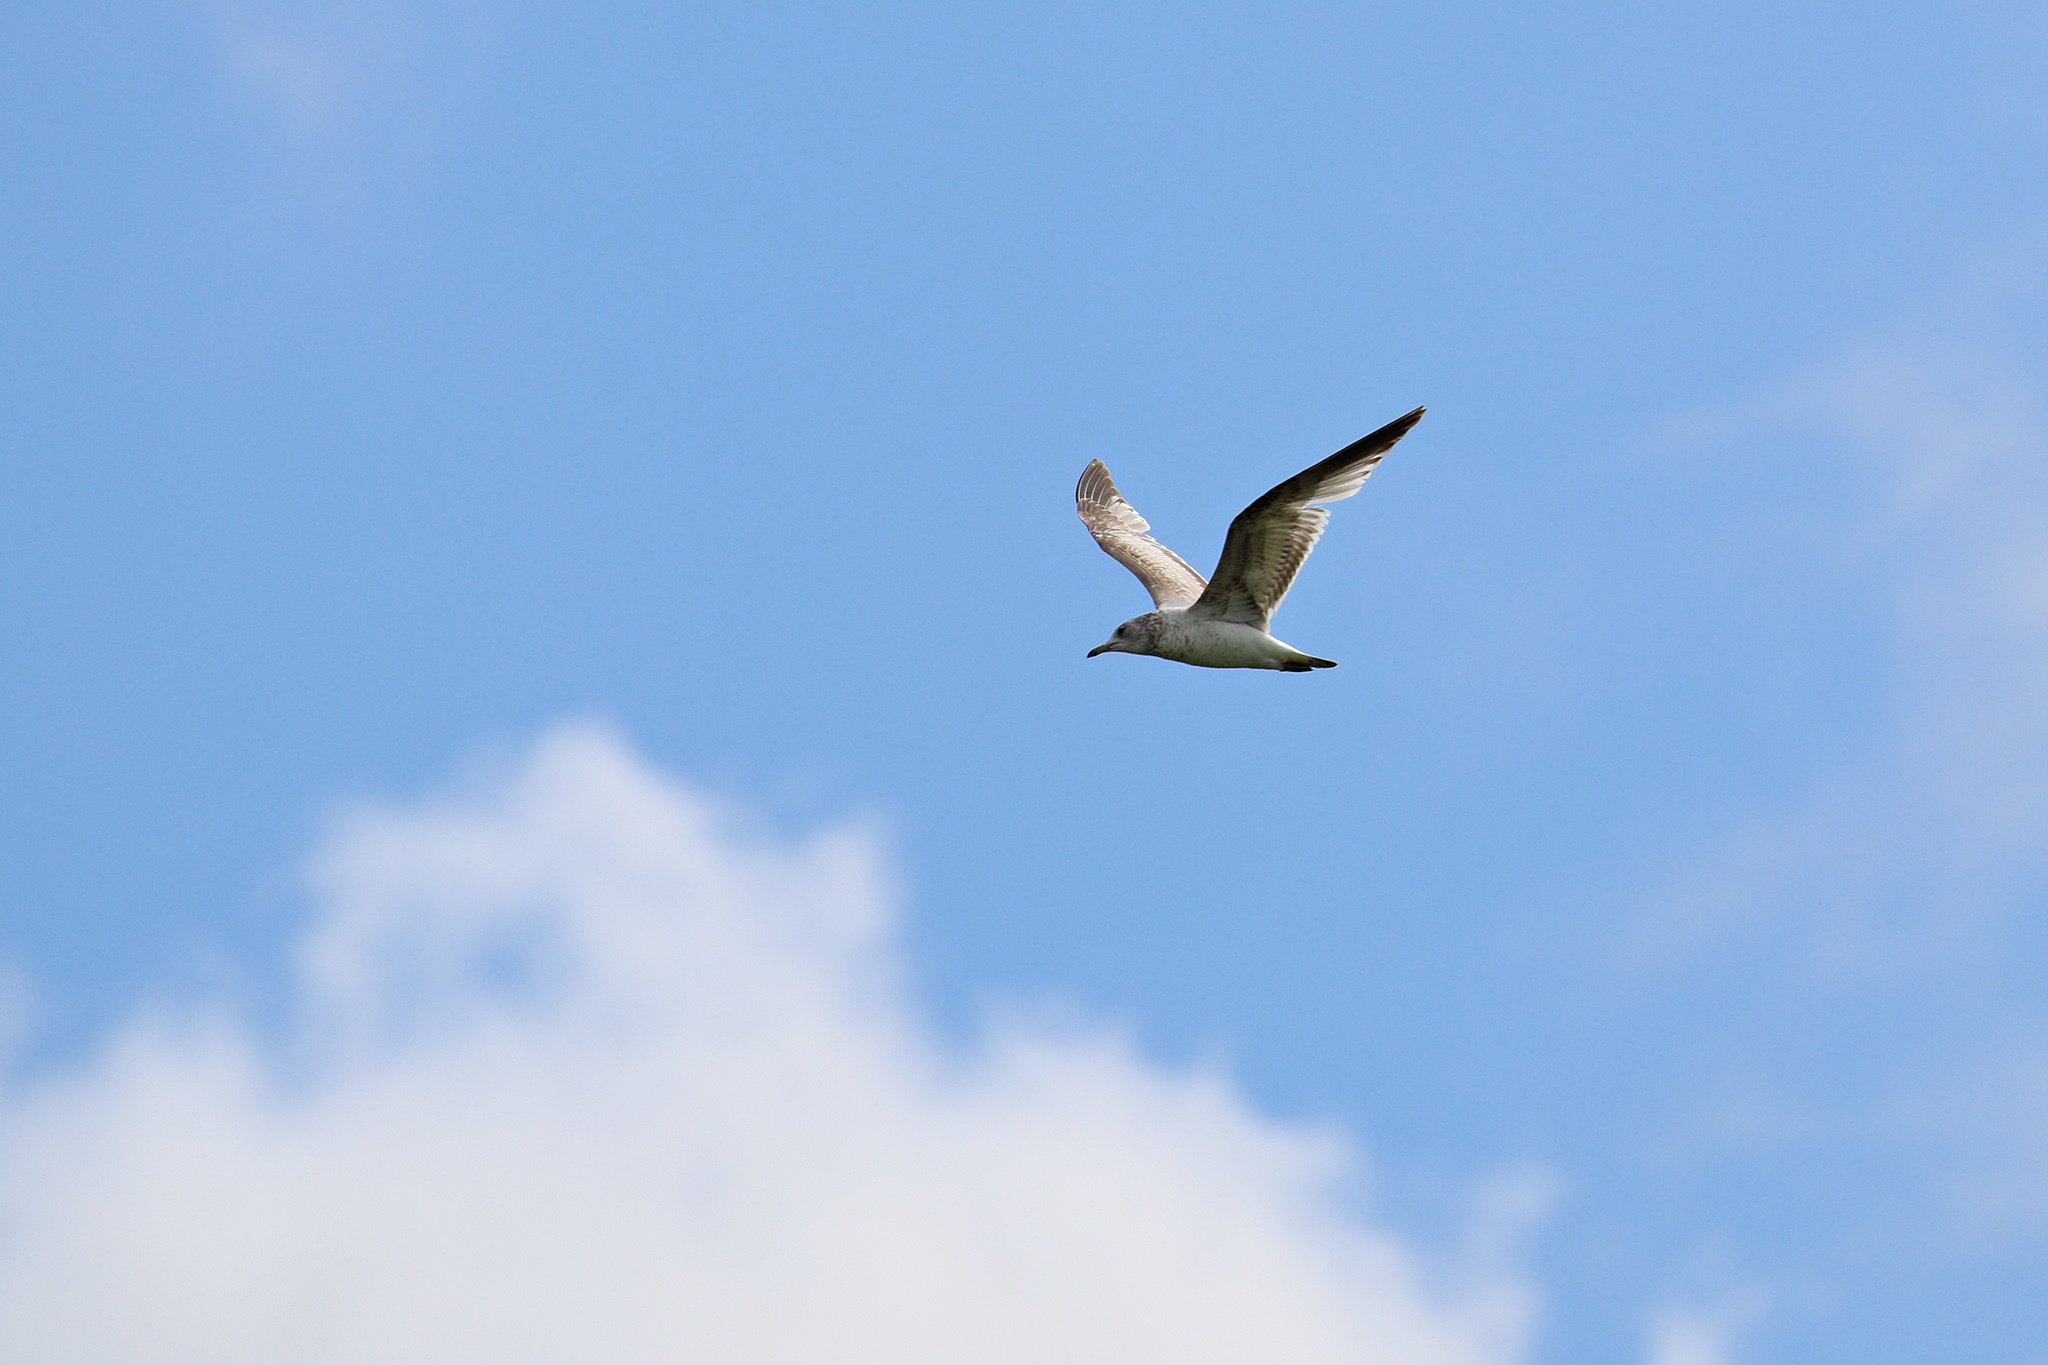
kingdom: Animalia
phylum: Chordata
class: Aves
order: Charadriiformes
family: Laridae
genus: Larus
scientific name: Larus canus
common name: Mew gull
